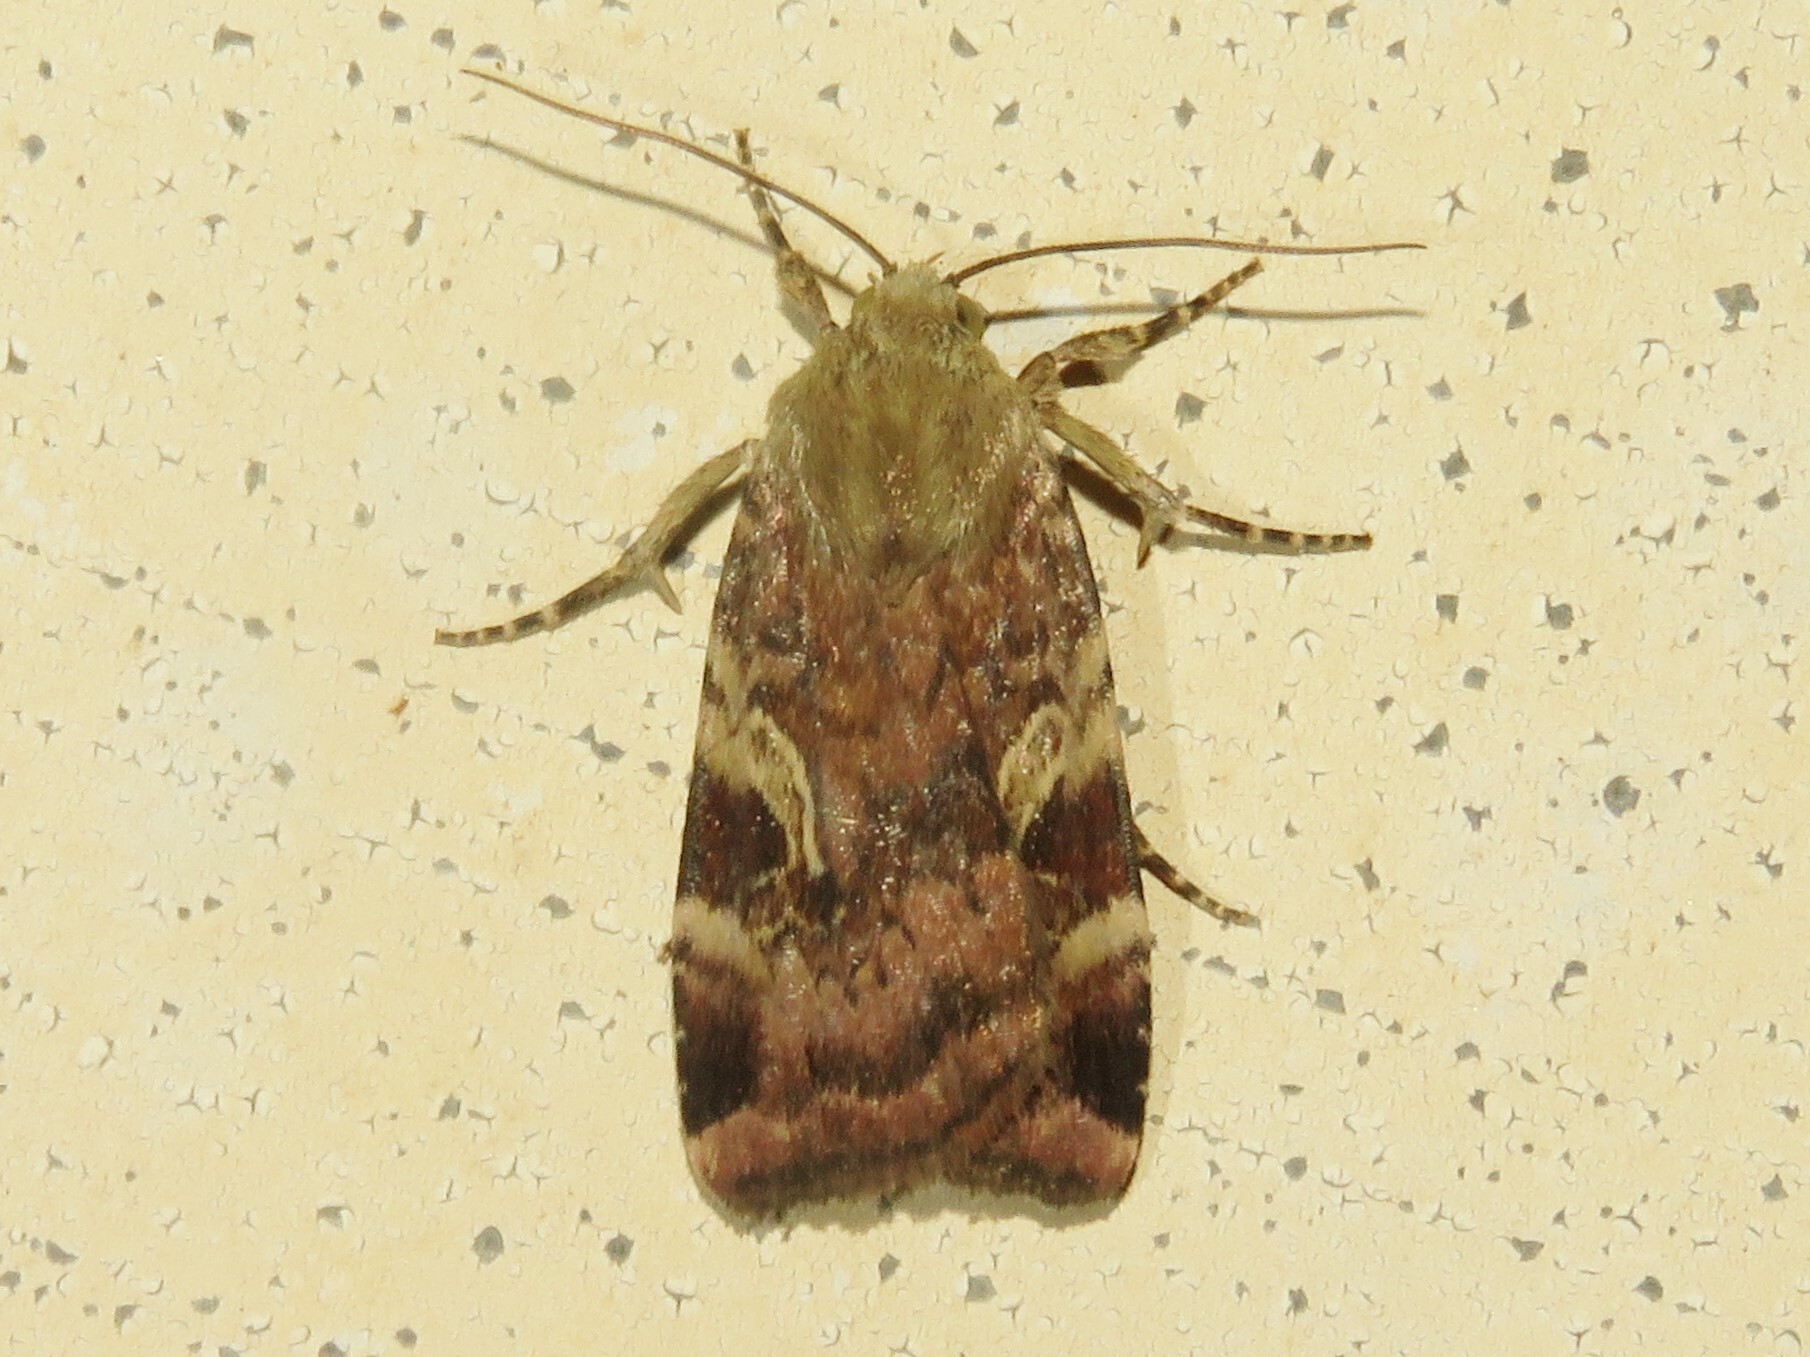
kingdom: Animalia
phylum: Arthropoda
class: Insecta
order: Lepidoptera
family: Noctuidae
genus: Cryptocala
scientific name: Cryptocala acadiensis
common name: Catocaline dart
